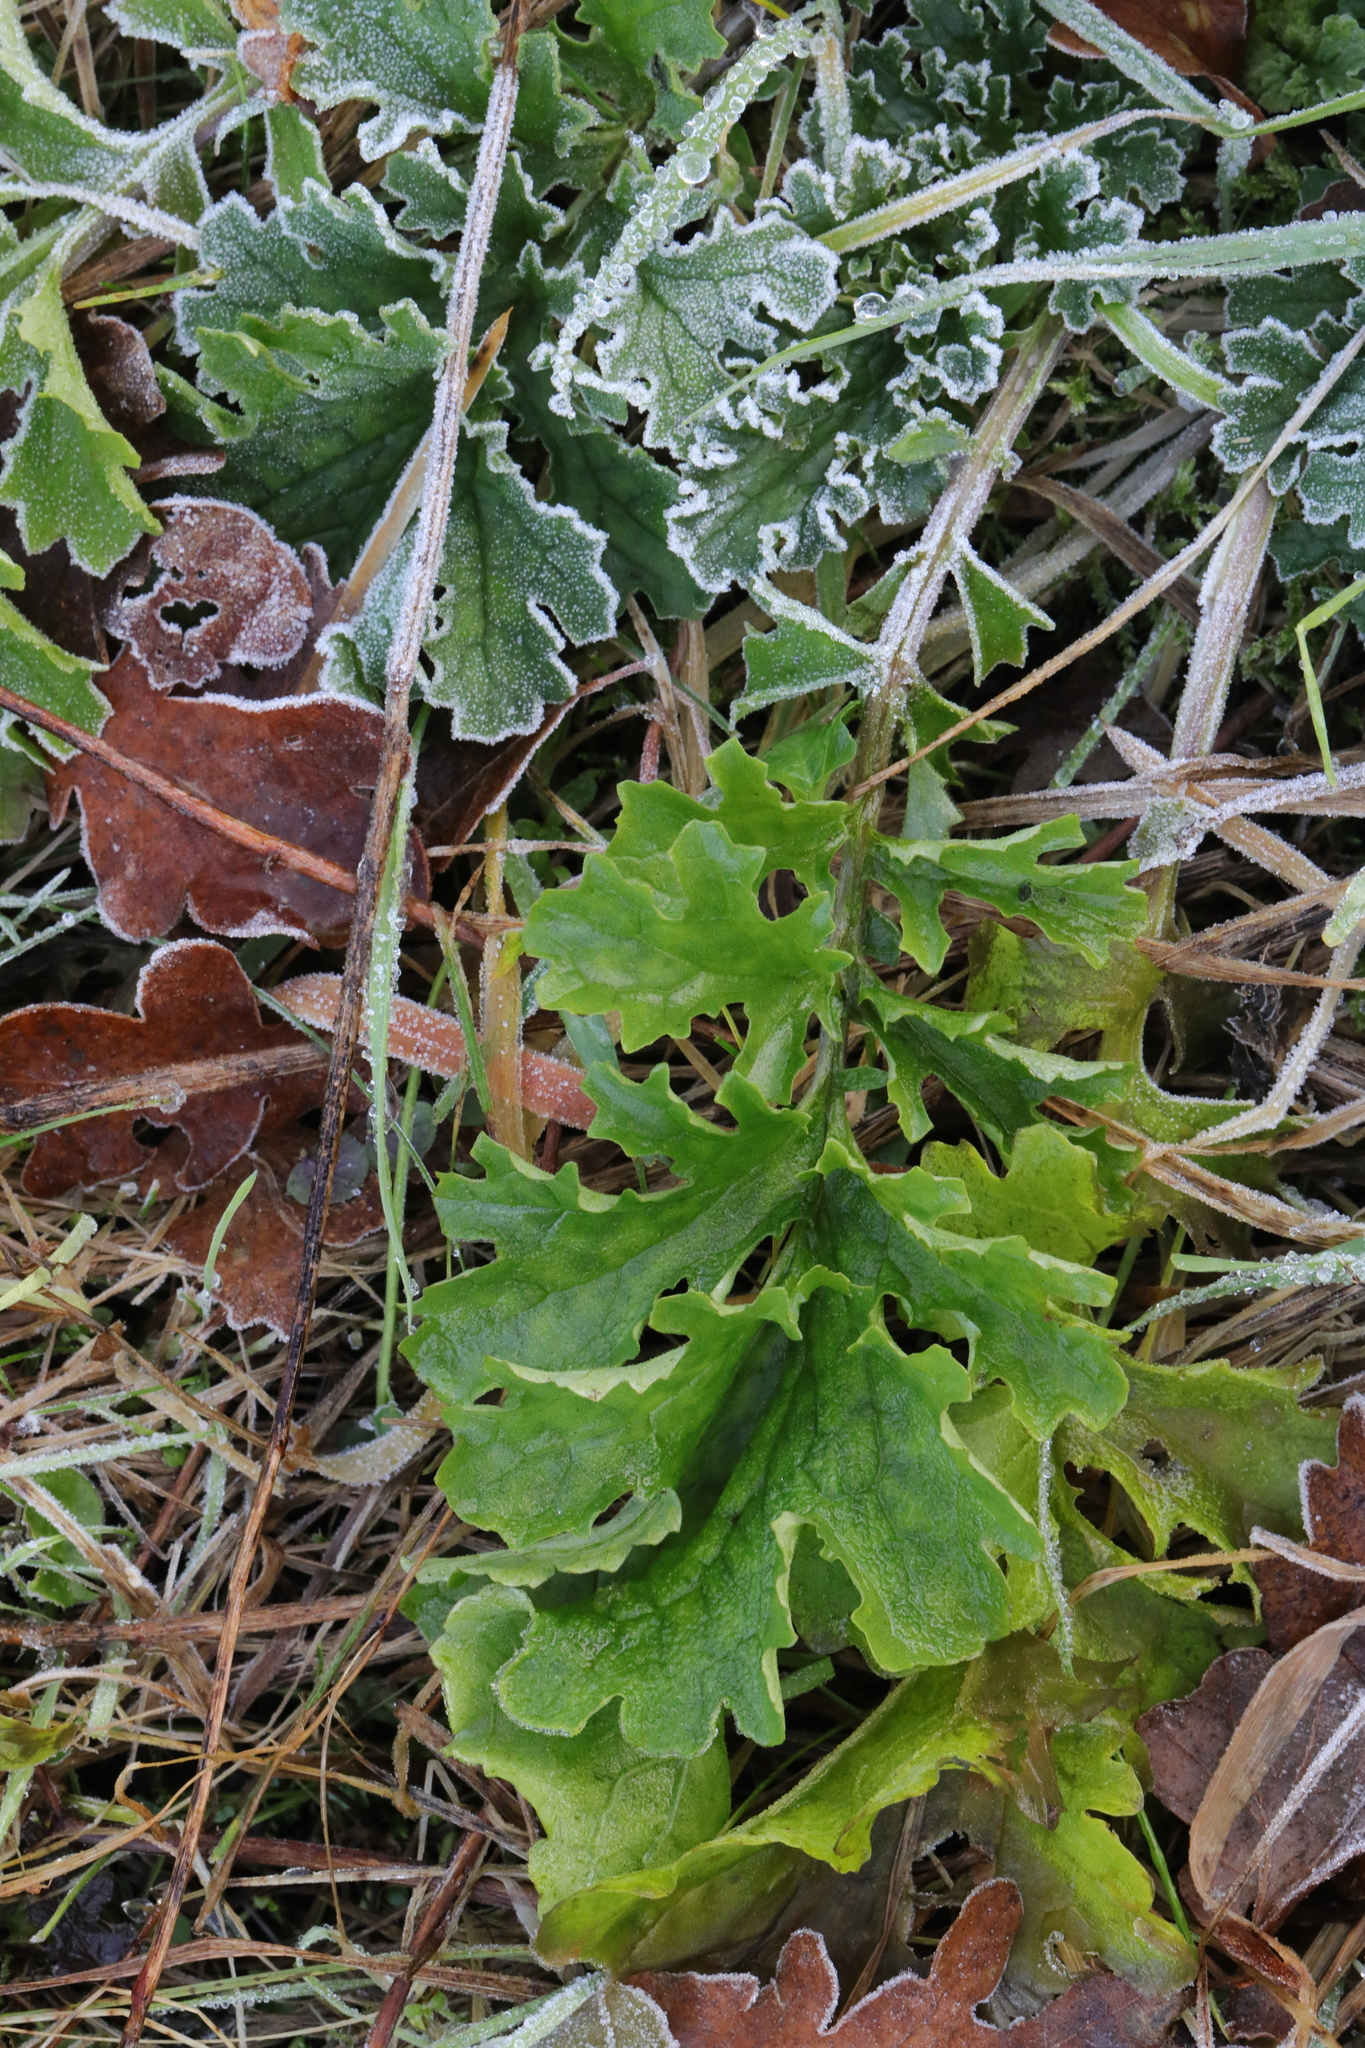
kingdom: Plantae
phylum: Tracheophyta
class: Magnoliopsida
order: Asterales
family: Asteraceae
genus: Jacobaea
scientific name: Jacobaea vulgaris
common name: Stinking willie
